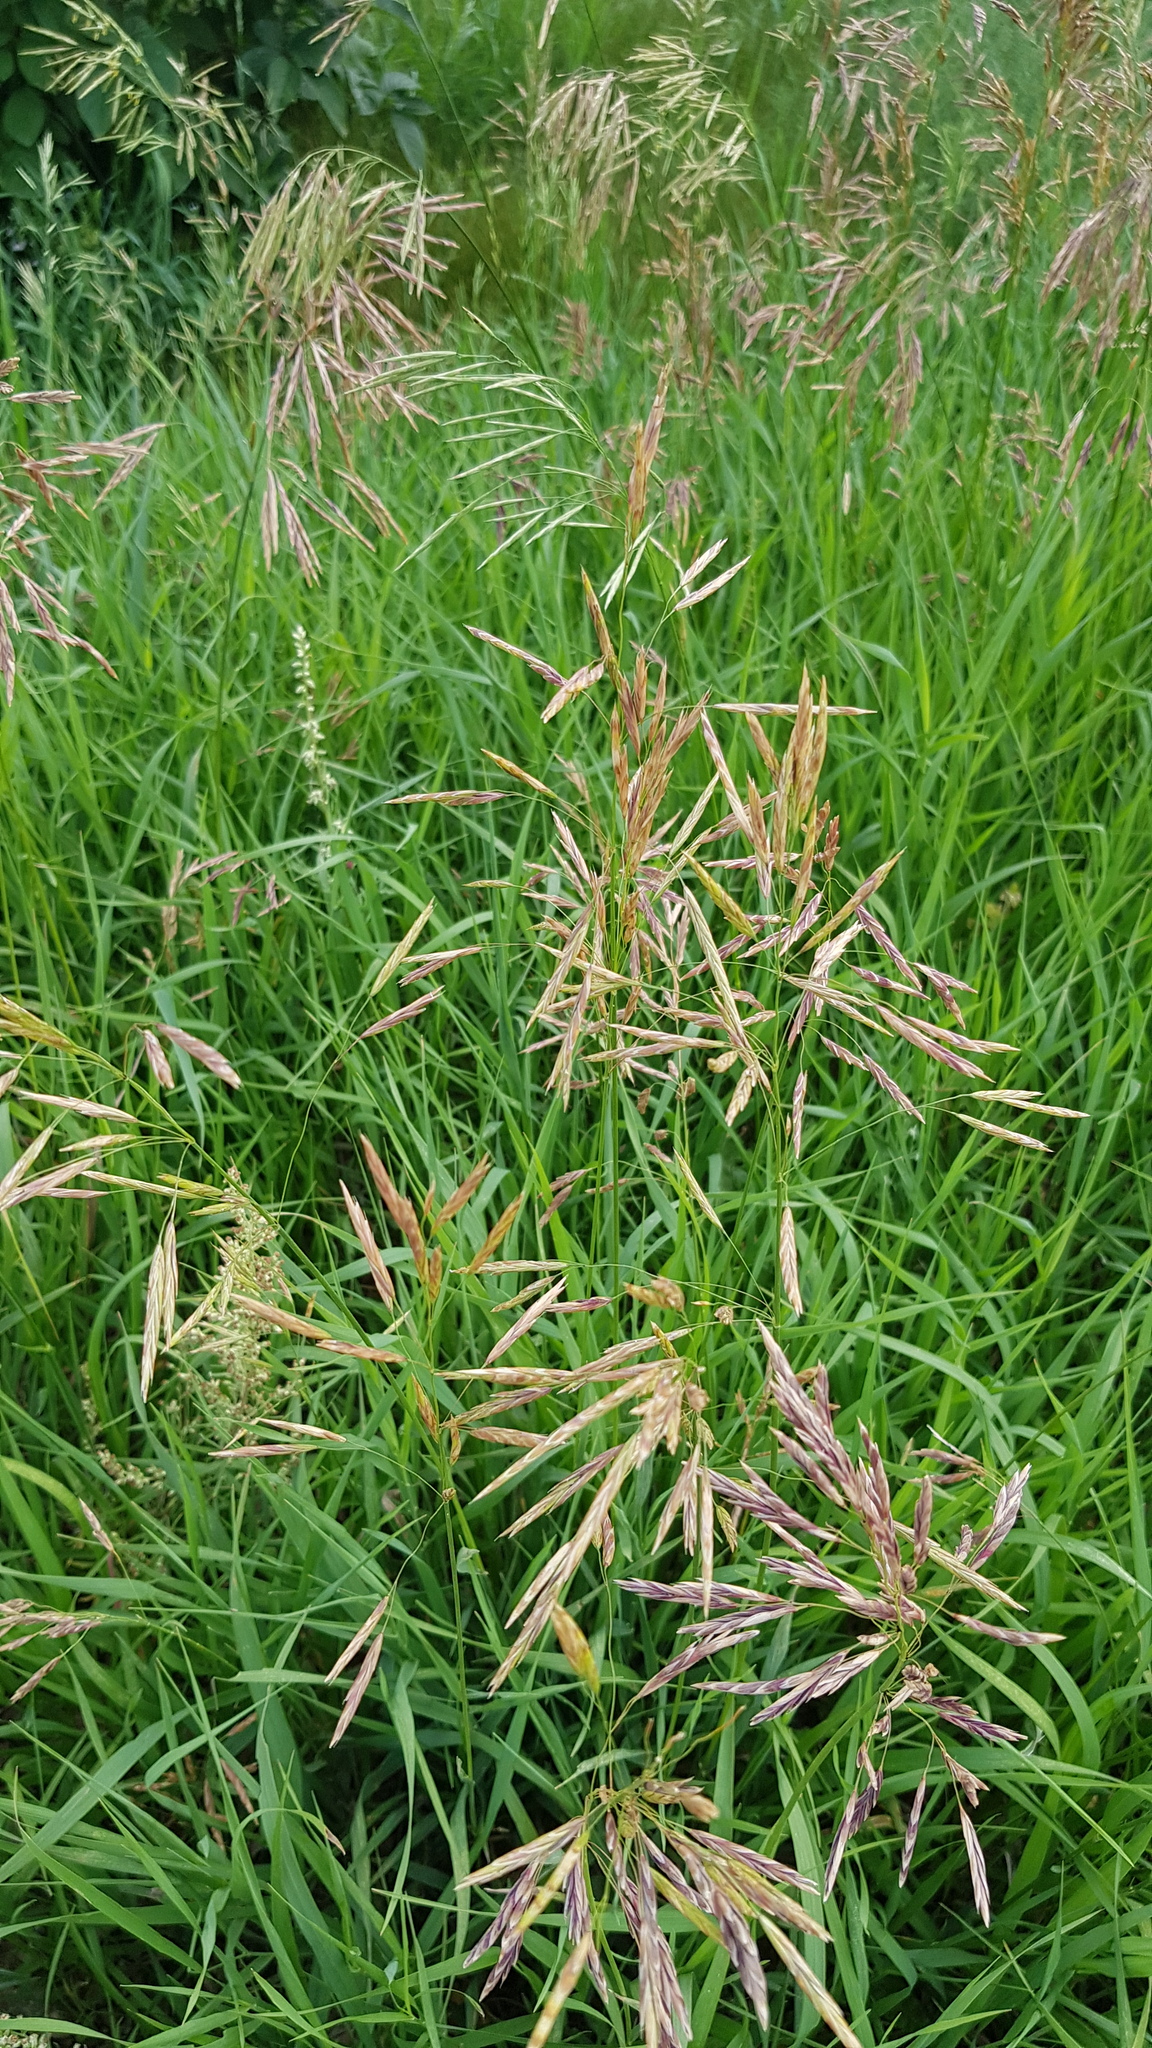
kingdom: Plantae
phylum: Tracheophyta
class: Liliopsida
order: Poales
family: Poaceae
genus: Bromus
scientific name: Bromus inermis
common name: Smooth brome
